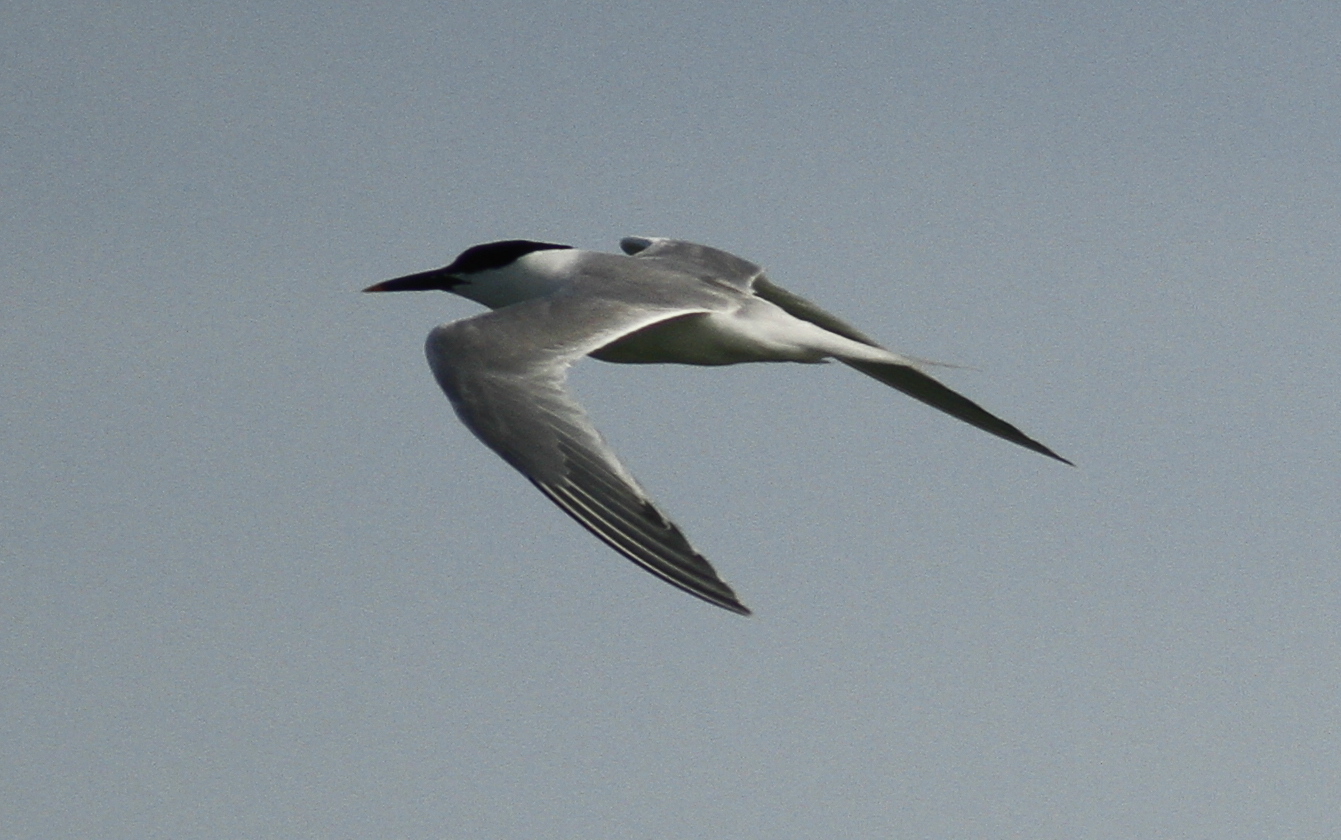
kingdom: Animalia
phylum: Chordata
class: Aves
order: Charadriiformes
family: Laridae
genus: Thalasseus
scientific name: Thalasseus sandvicensis
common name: Sandwich tern
